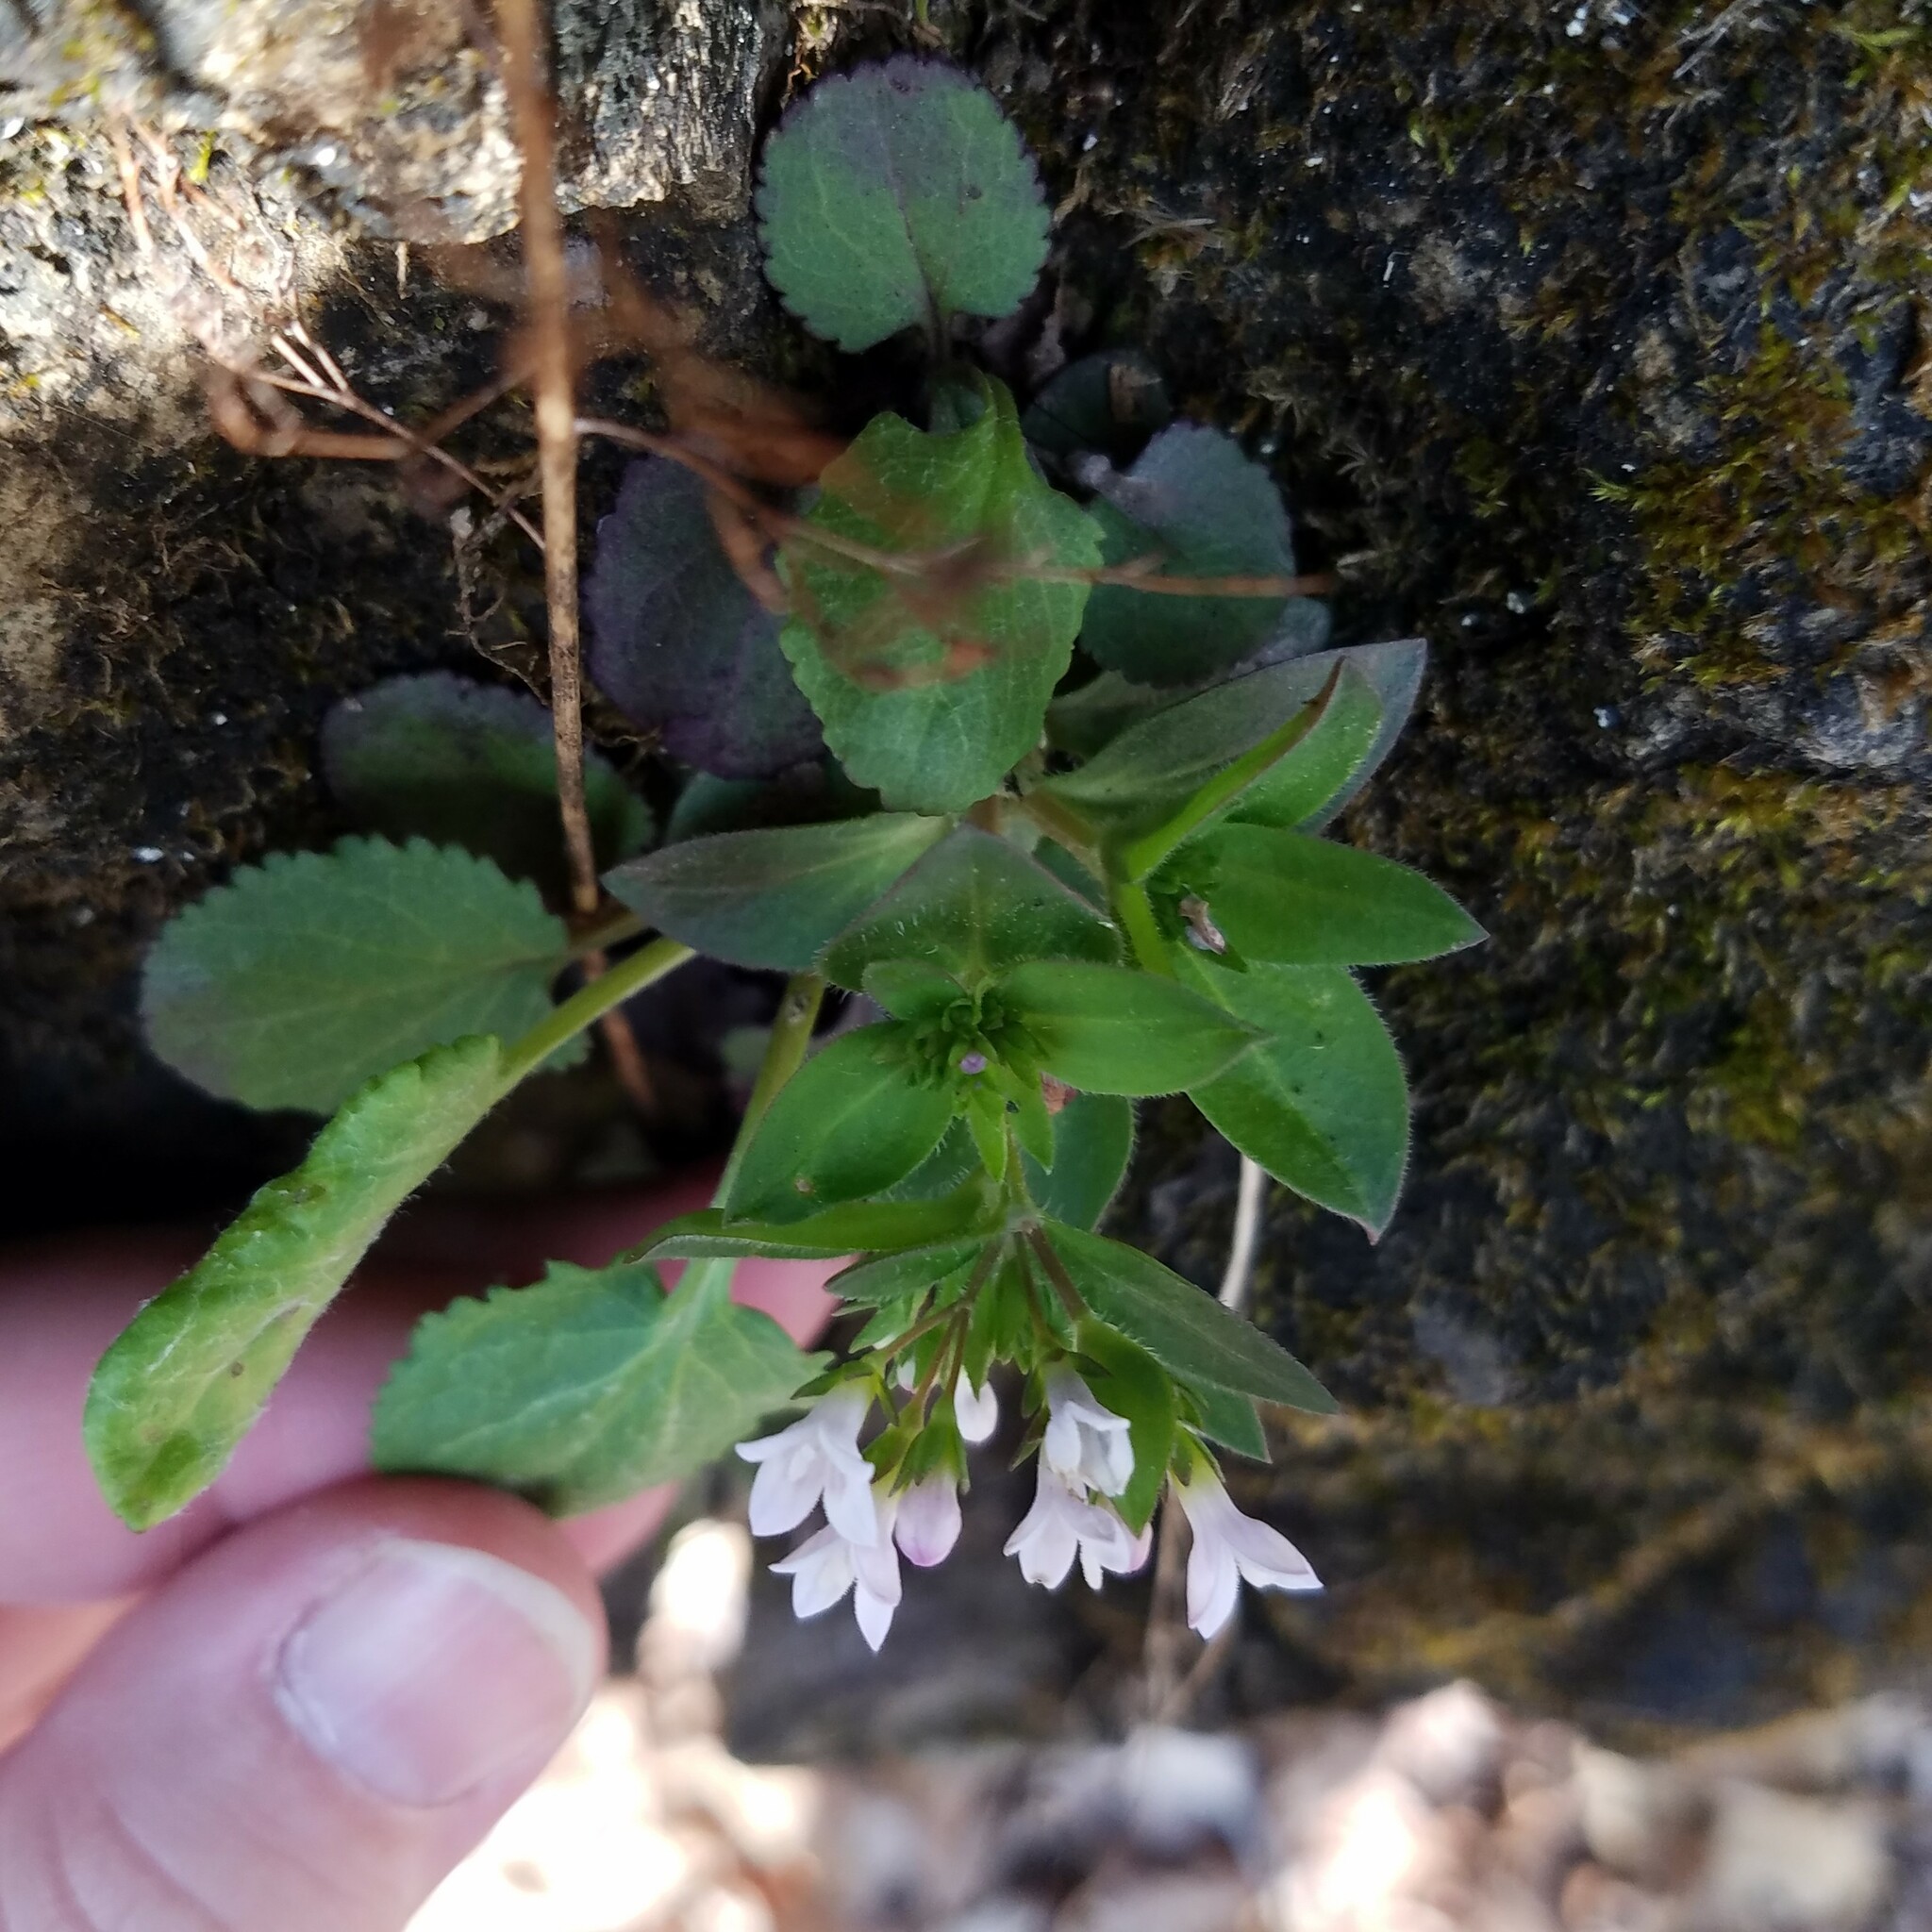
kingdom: Plantae
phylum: Tracheophyta
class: Magnoliopsida
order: Gentianales
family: Rubiaceae
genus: Houstonia
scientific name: Houstonia purpurea
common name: Summer bluet
